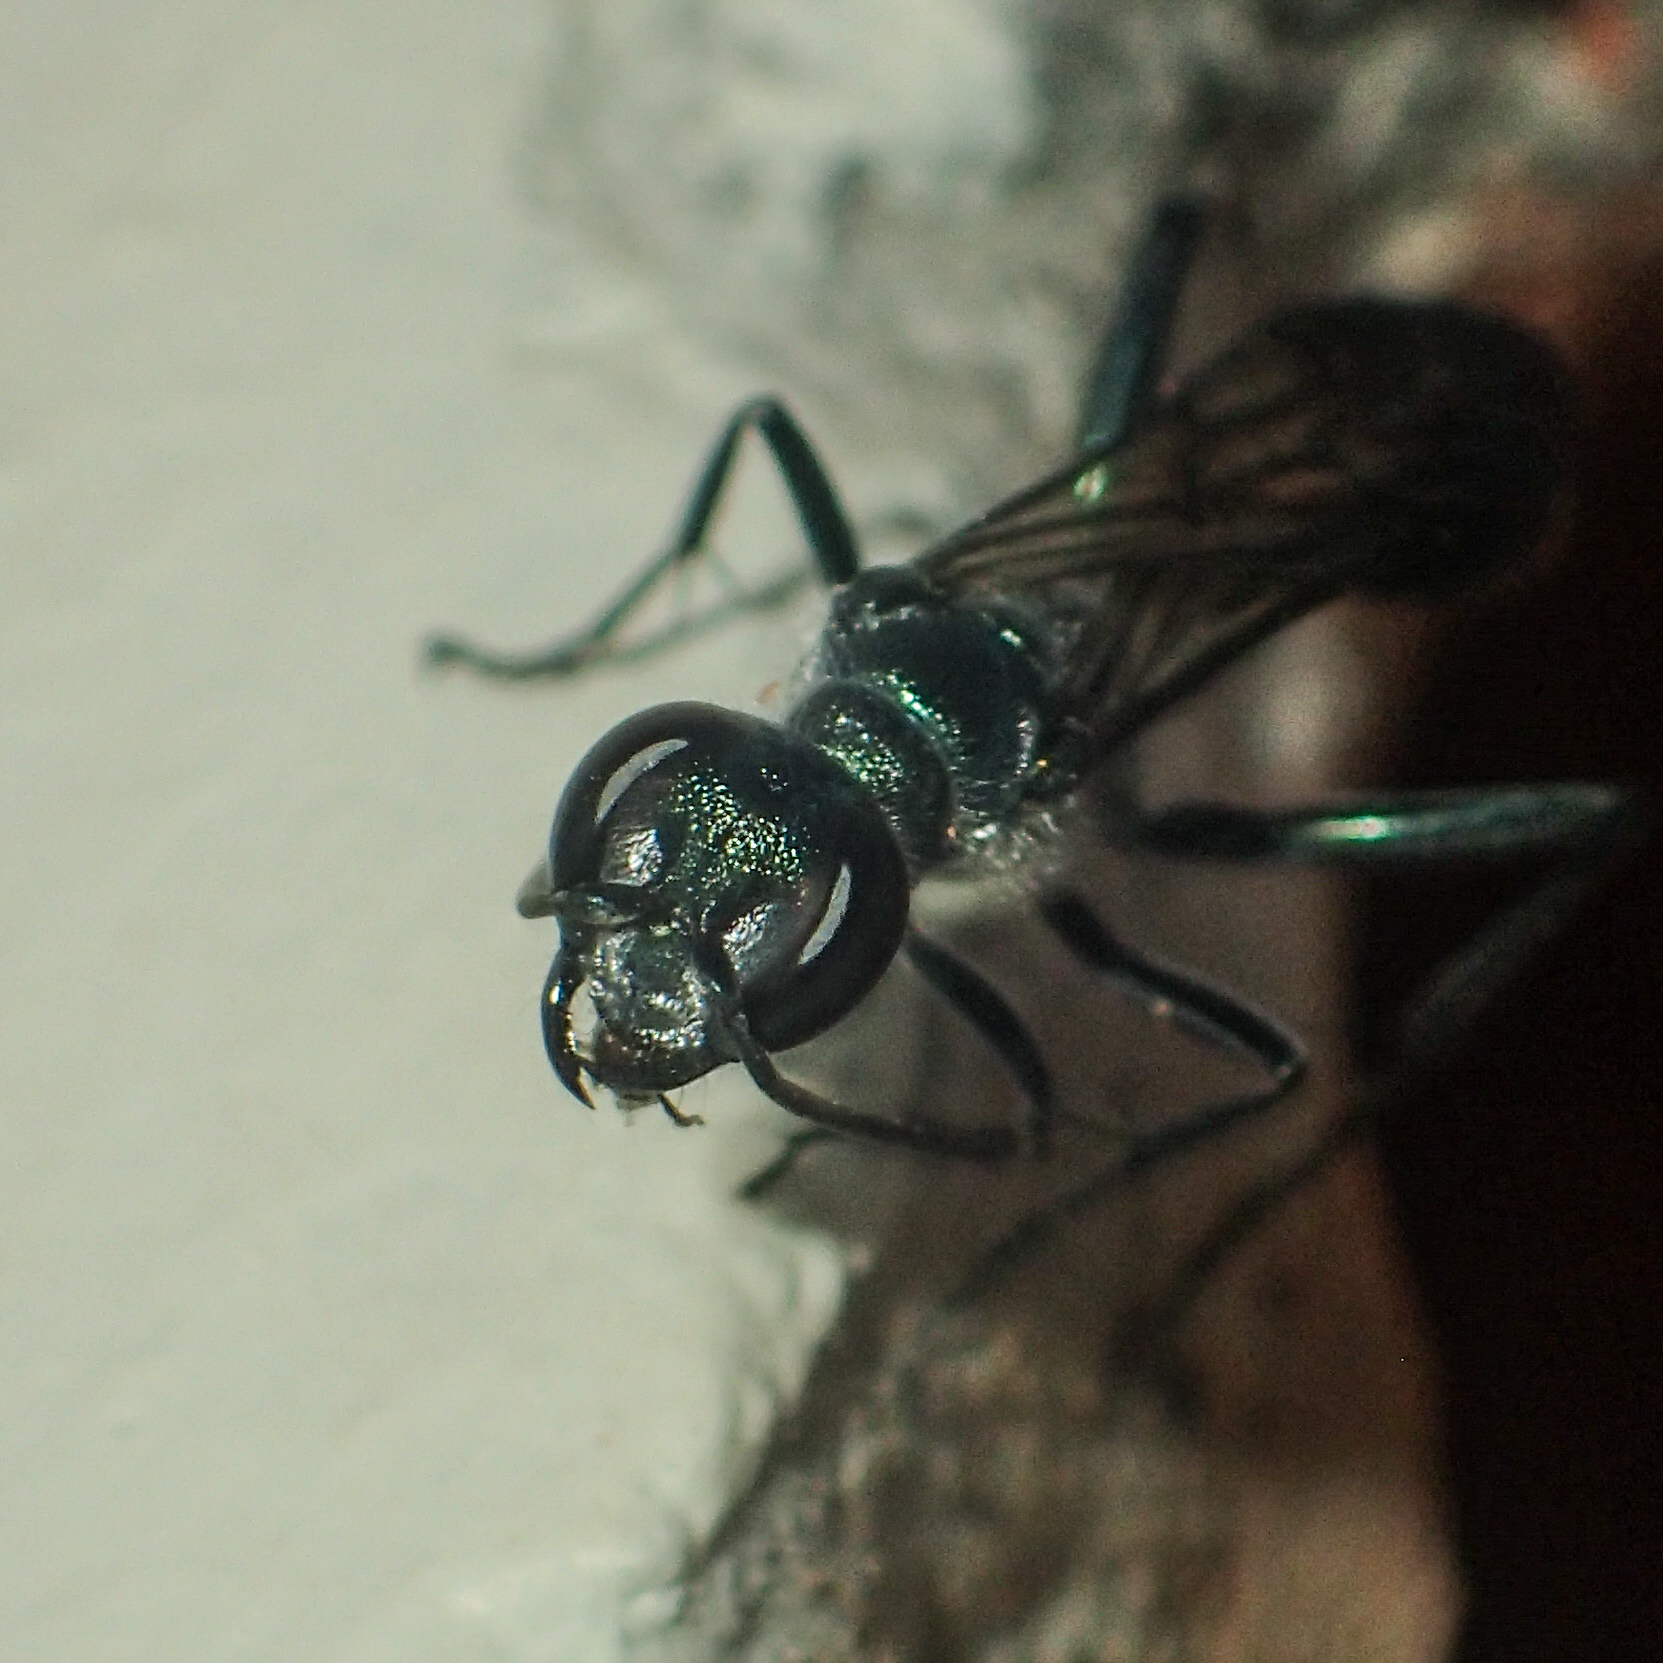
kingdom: Animalia
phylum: Arthropoda
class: Insecta
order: Hymenoptera
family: Sphecidae
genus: Chalybion
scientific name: Chalybion bengalense
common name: Mud dauber
